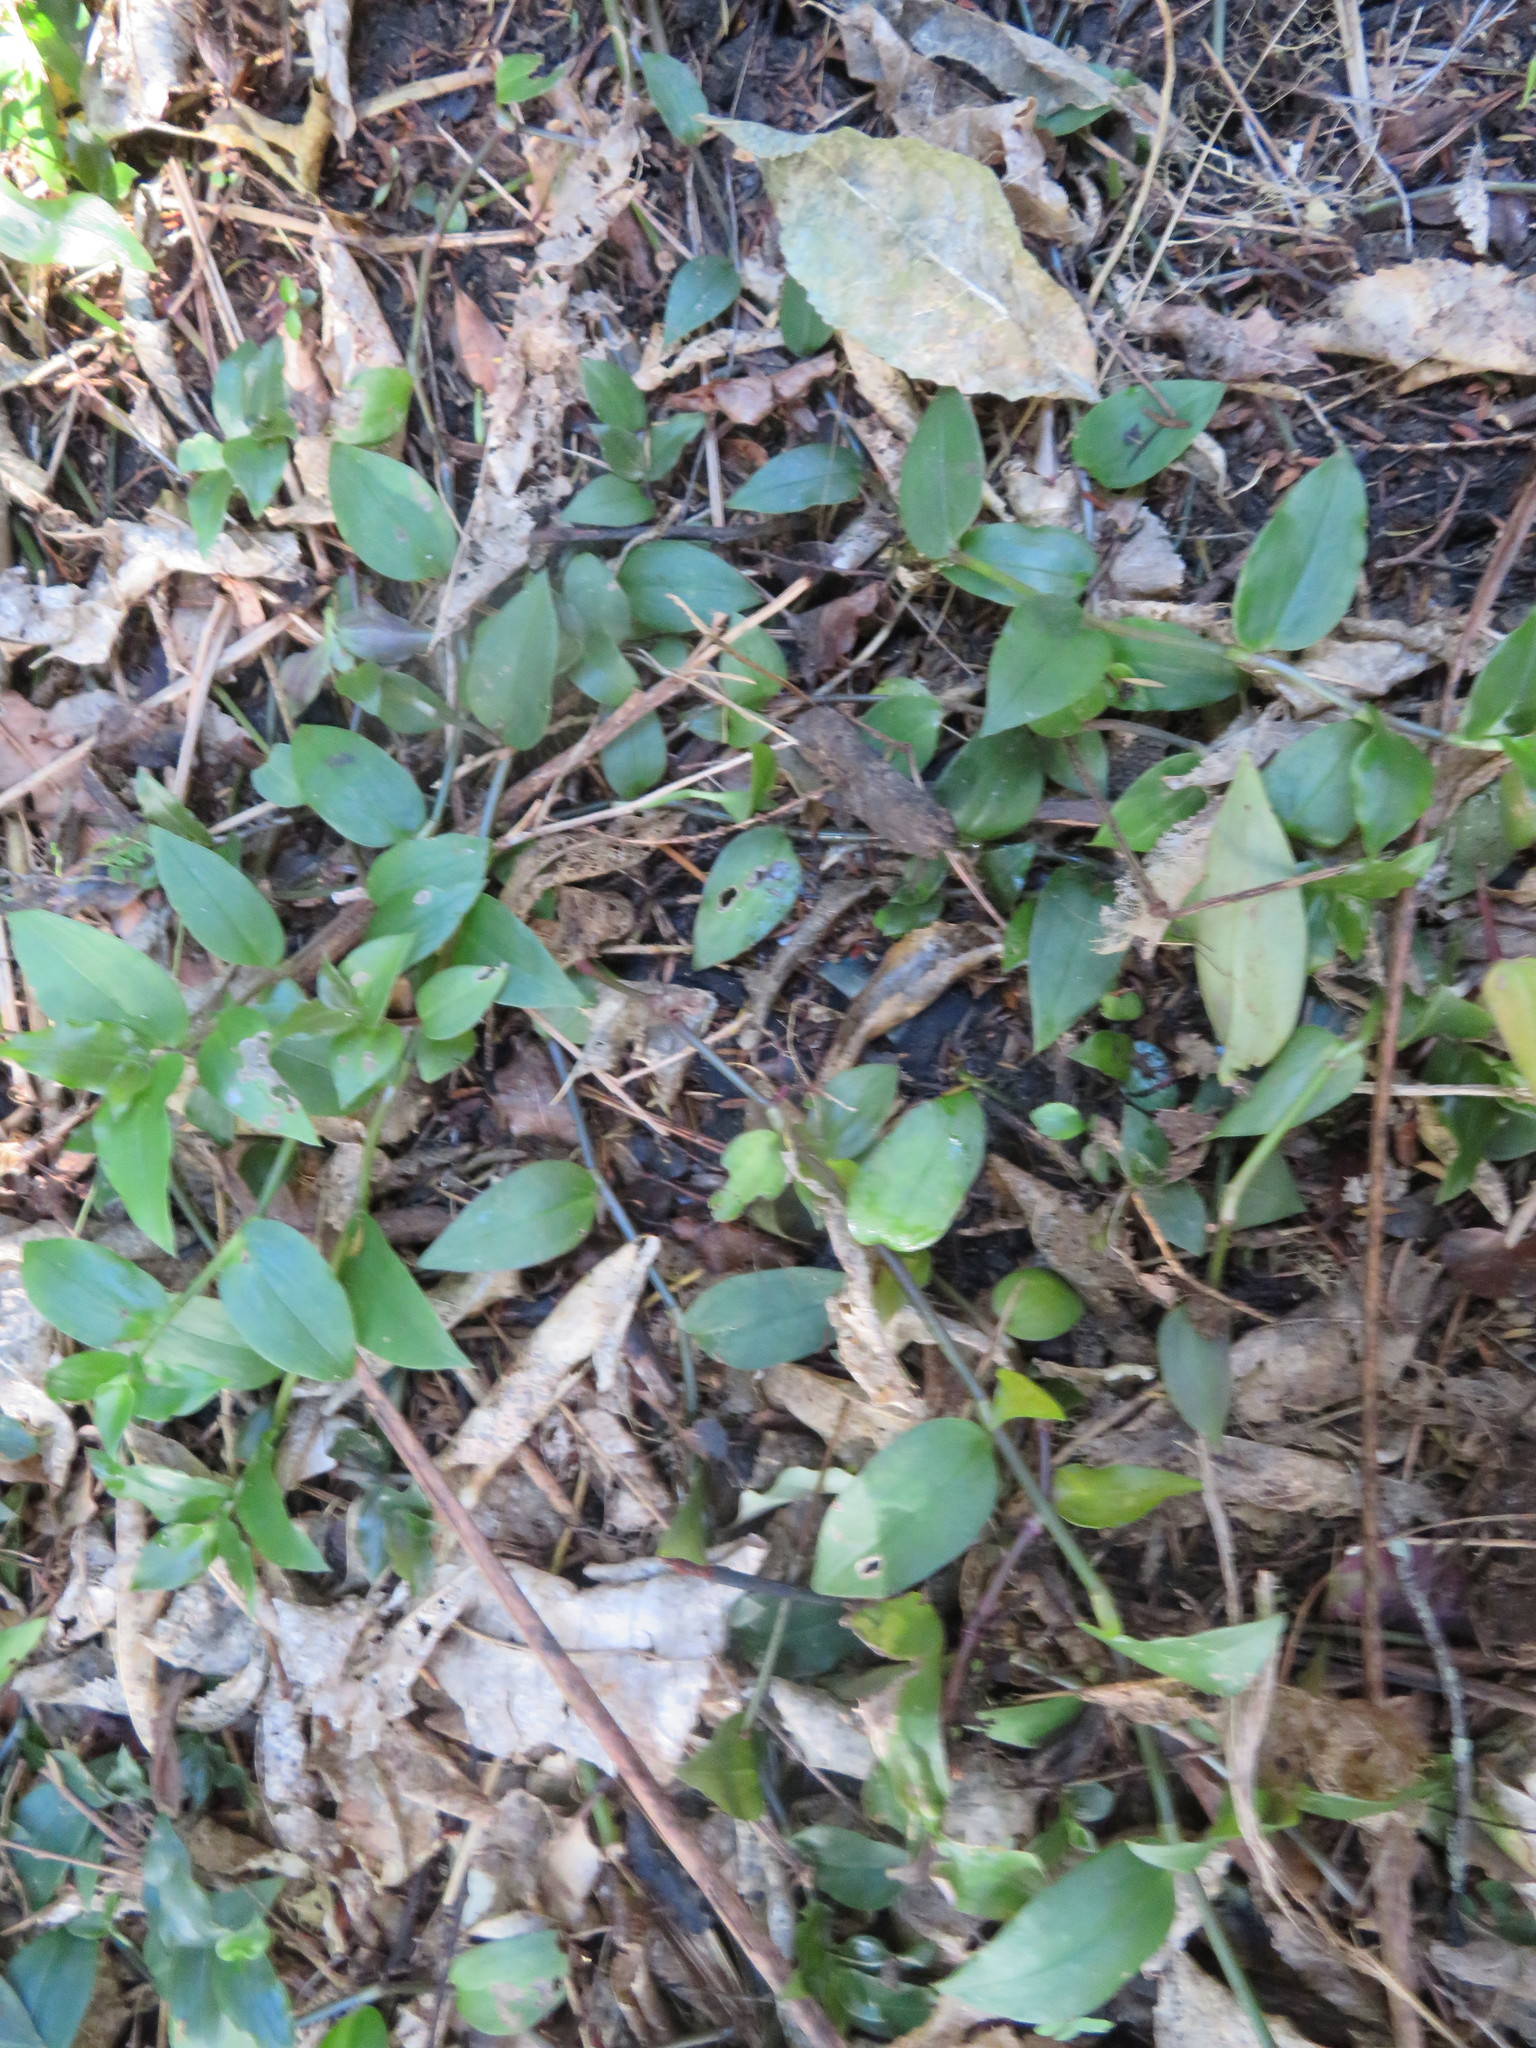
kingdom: Plantae
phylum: Tracheophyta
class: Liliopsida
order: Commelinales
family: Commelinaceae
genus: Tradescantia
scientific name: Tradescantia fluminensis
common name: Wandering-jew
